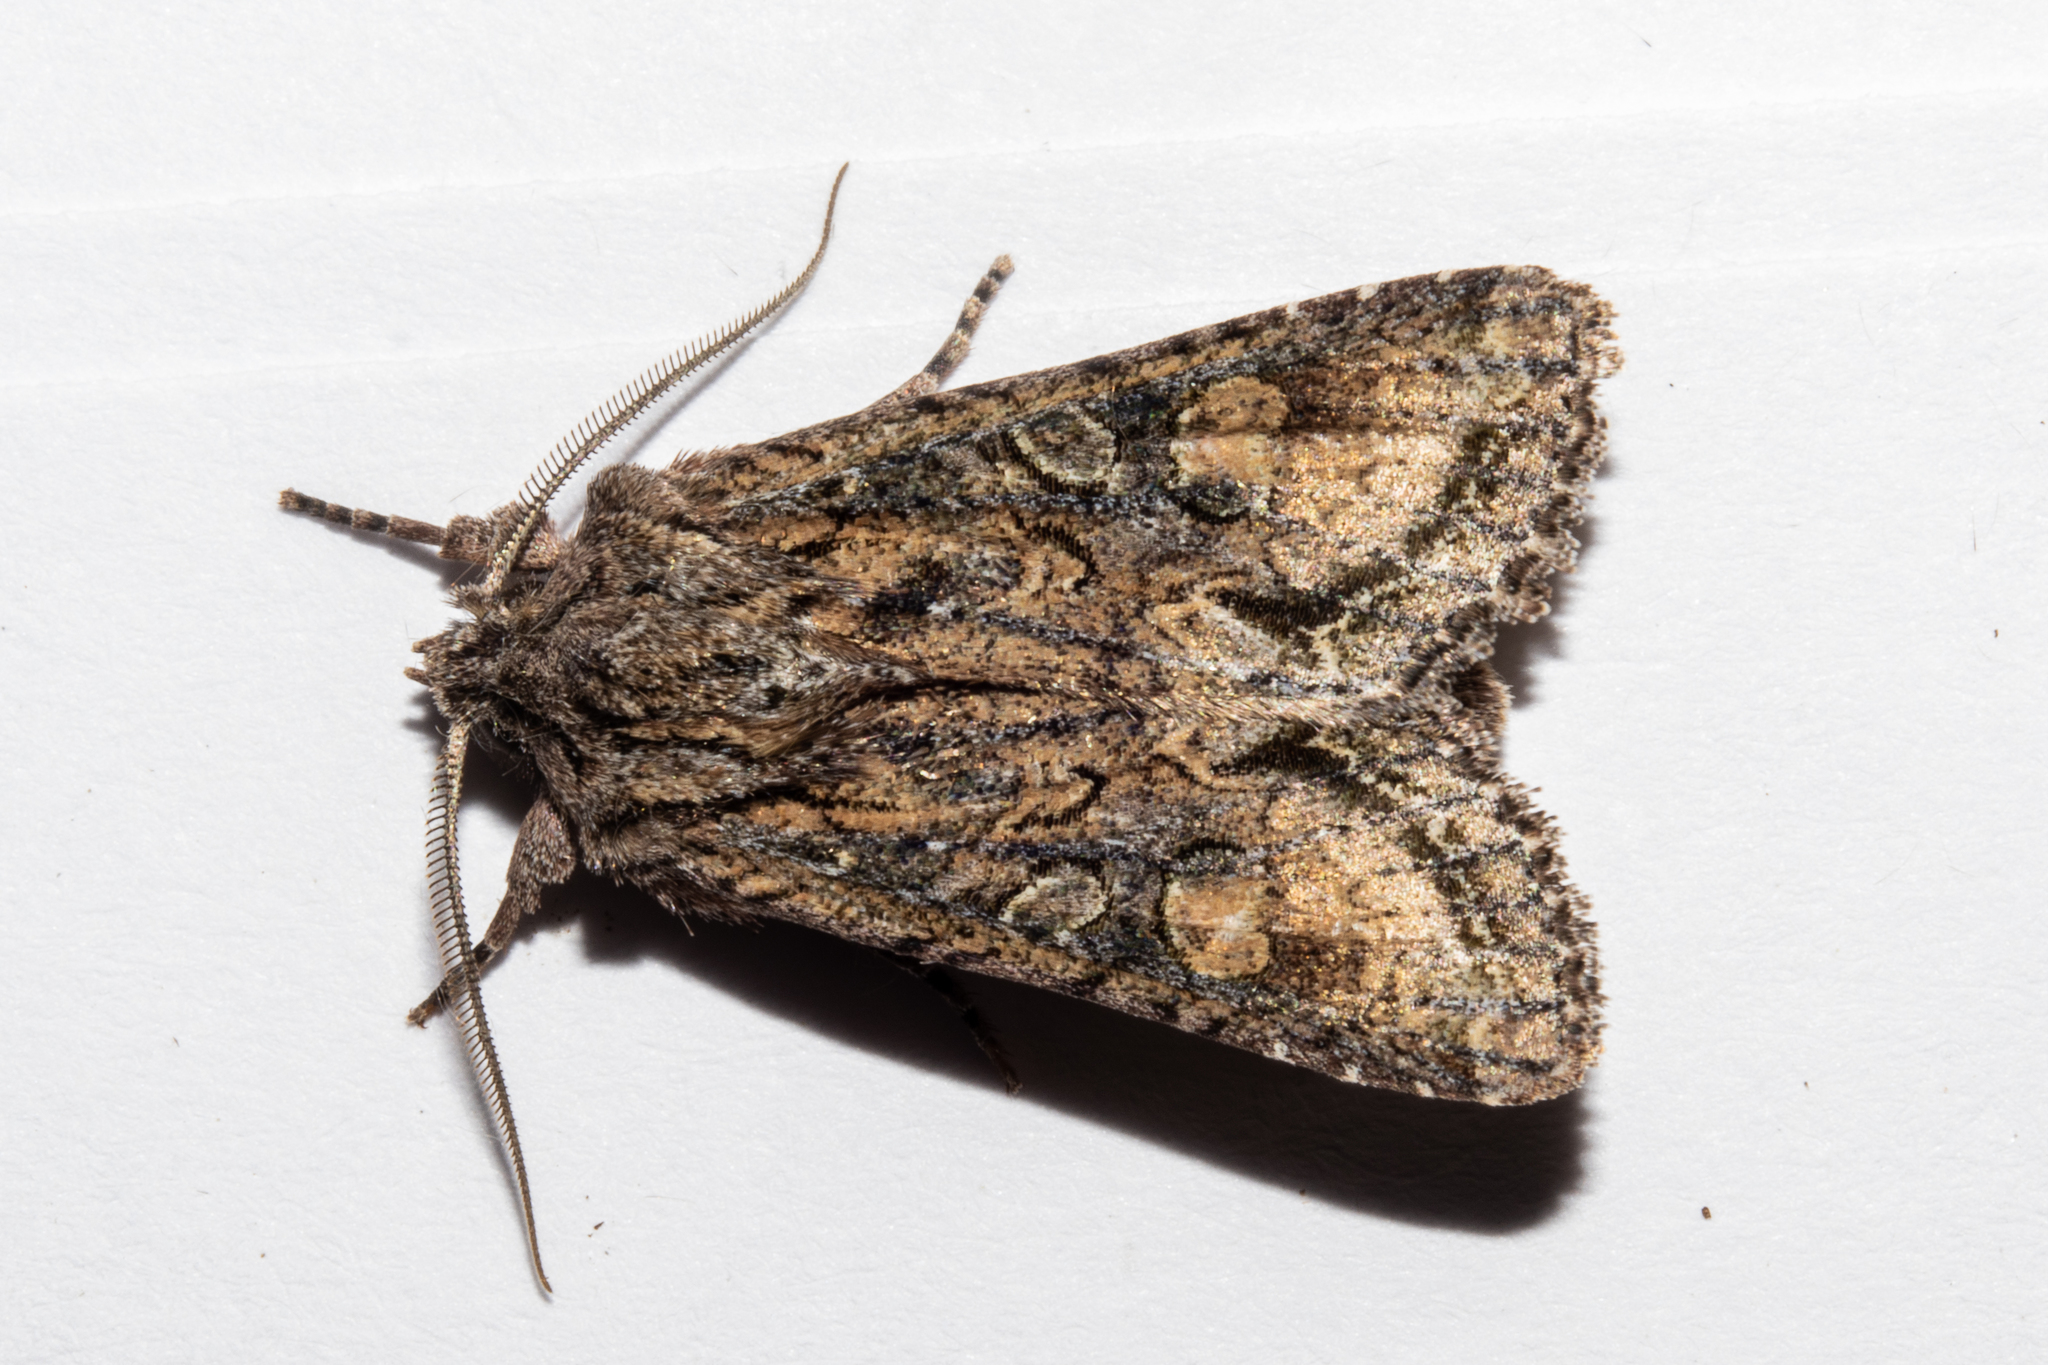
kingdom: Animalia
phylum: Arthropoda
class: Insecta
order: Lepidoptera
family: Noctuidae
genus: Ichneutica
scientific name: Ichneutica mutans
